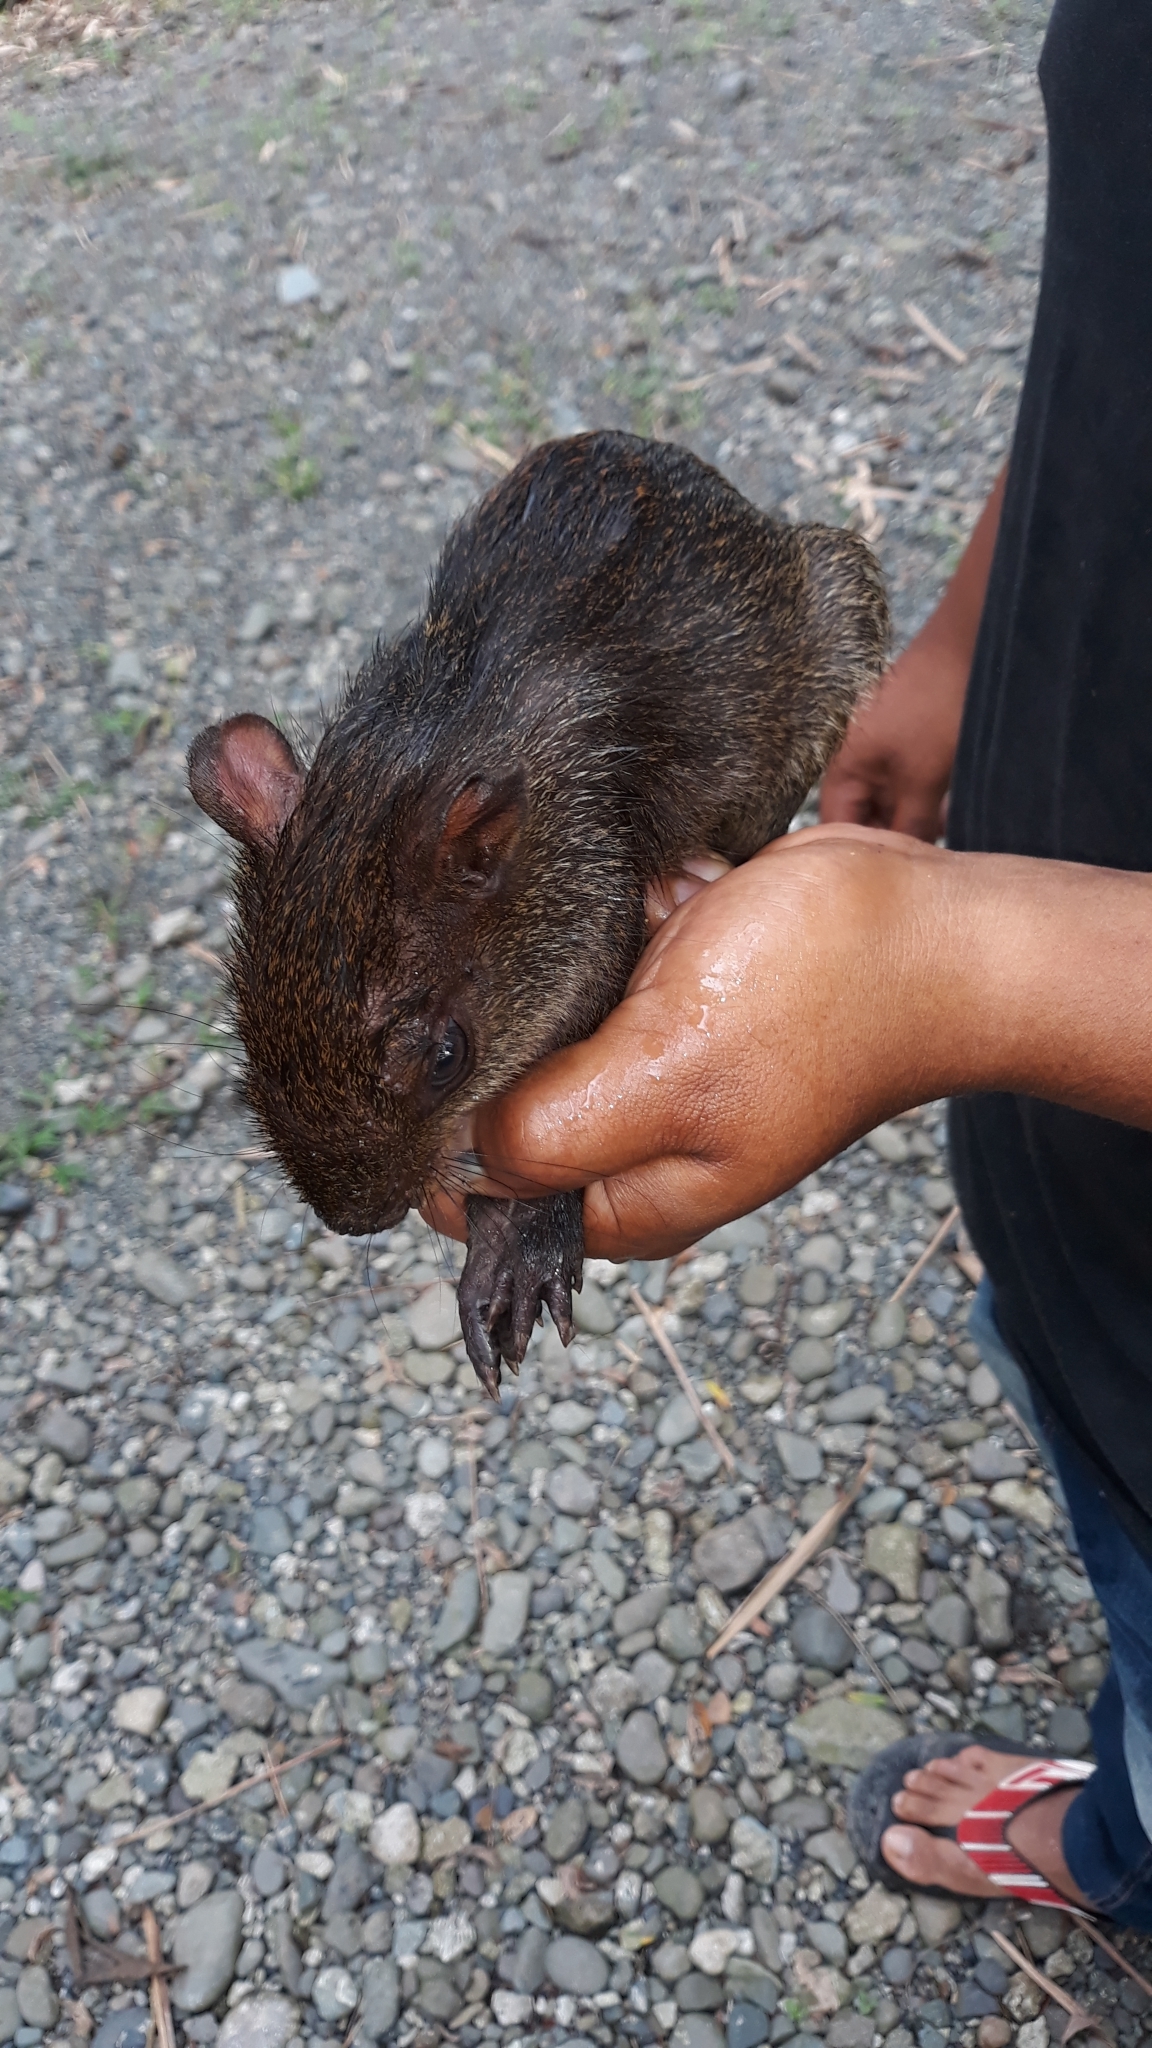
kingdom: Animalia
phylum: Chordata
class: Mammalia
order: Rodentia
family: Dasyproctidae
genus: Dasyprocta
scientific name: Dasyprocta punctata
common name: Central american agouti
